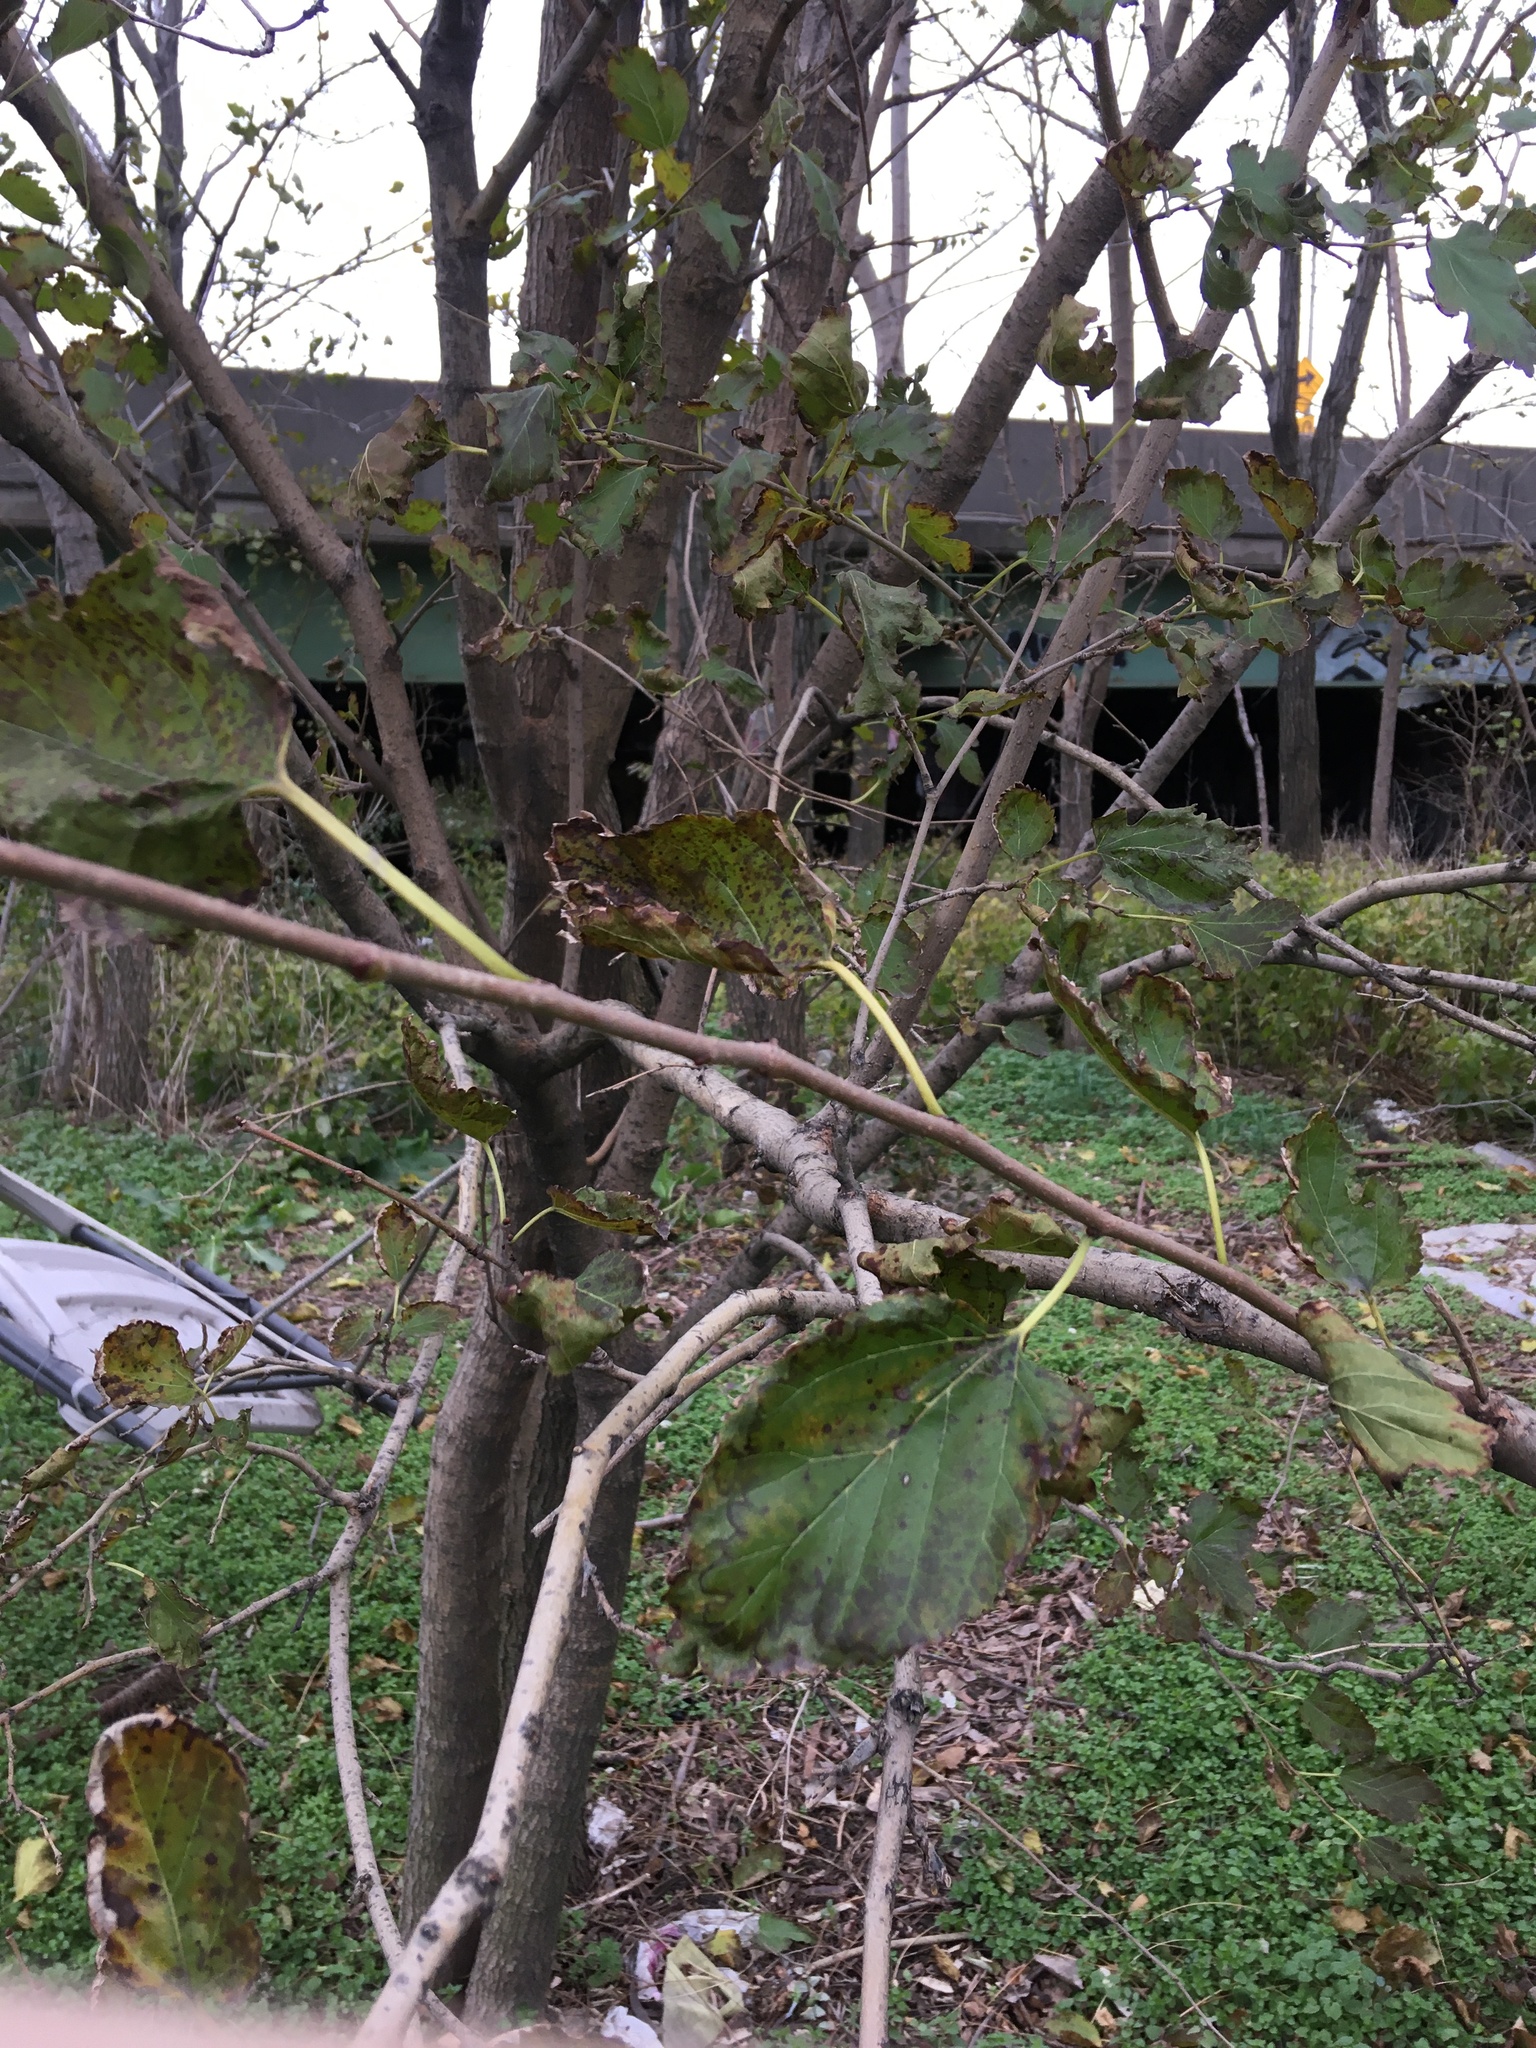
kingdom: Plantae
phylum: Tracheophyta
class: Magnoliopsida
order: Rosales
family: Moraceae
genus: Morus
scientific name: Morus alba
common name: White mulberry
